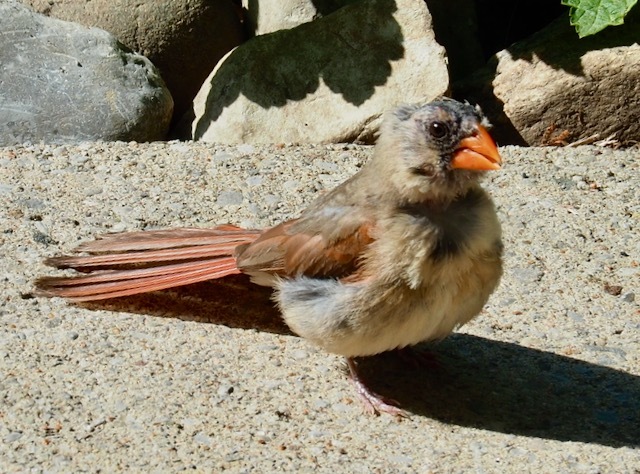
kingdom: Animalia
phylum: Chordata
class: Aves
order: Passeriformes
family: Cardinalidae
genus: Cardinalis
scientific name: Cardinalis cardinalis
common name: Northern cardinal
